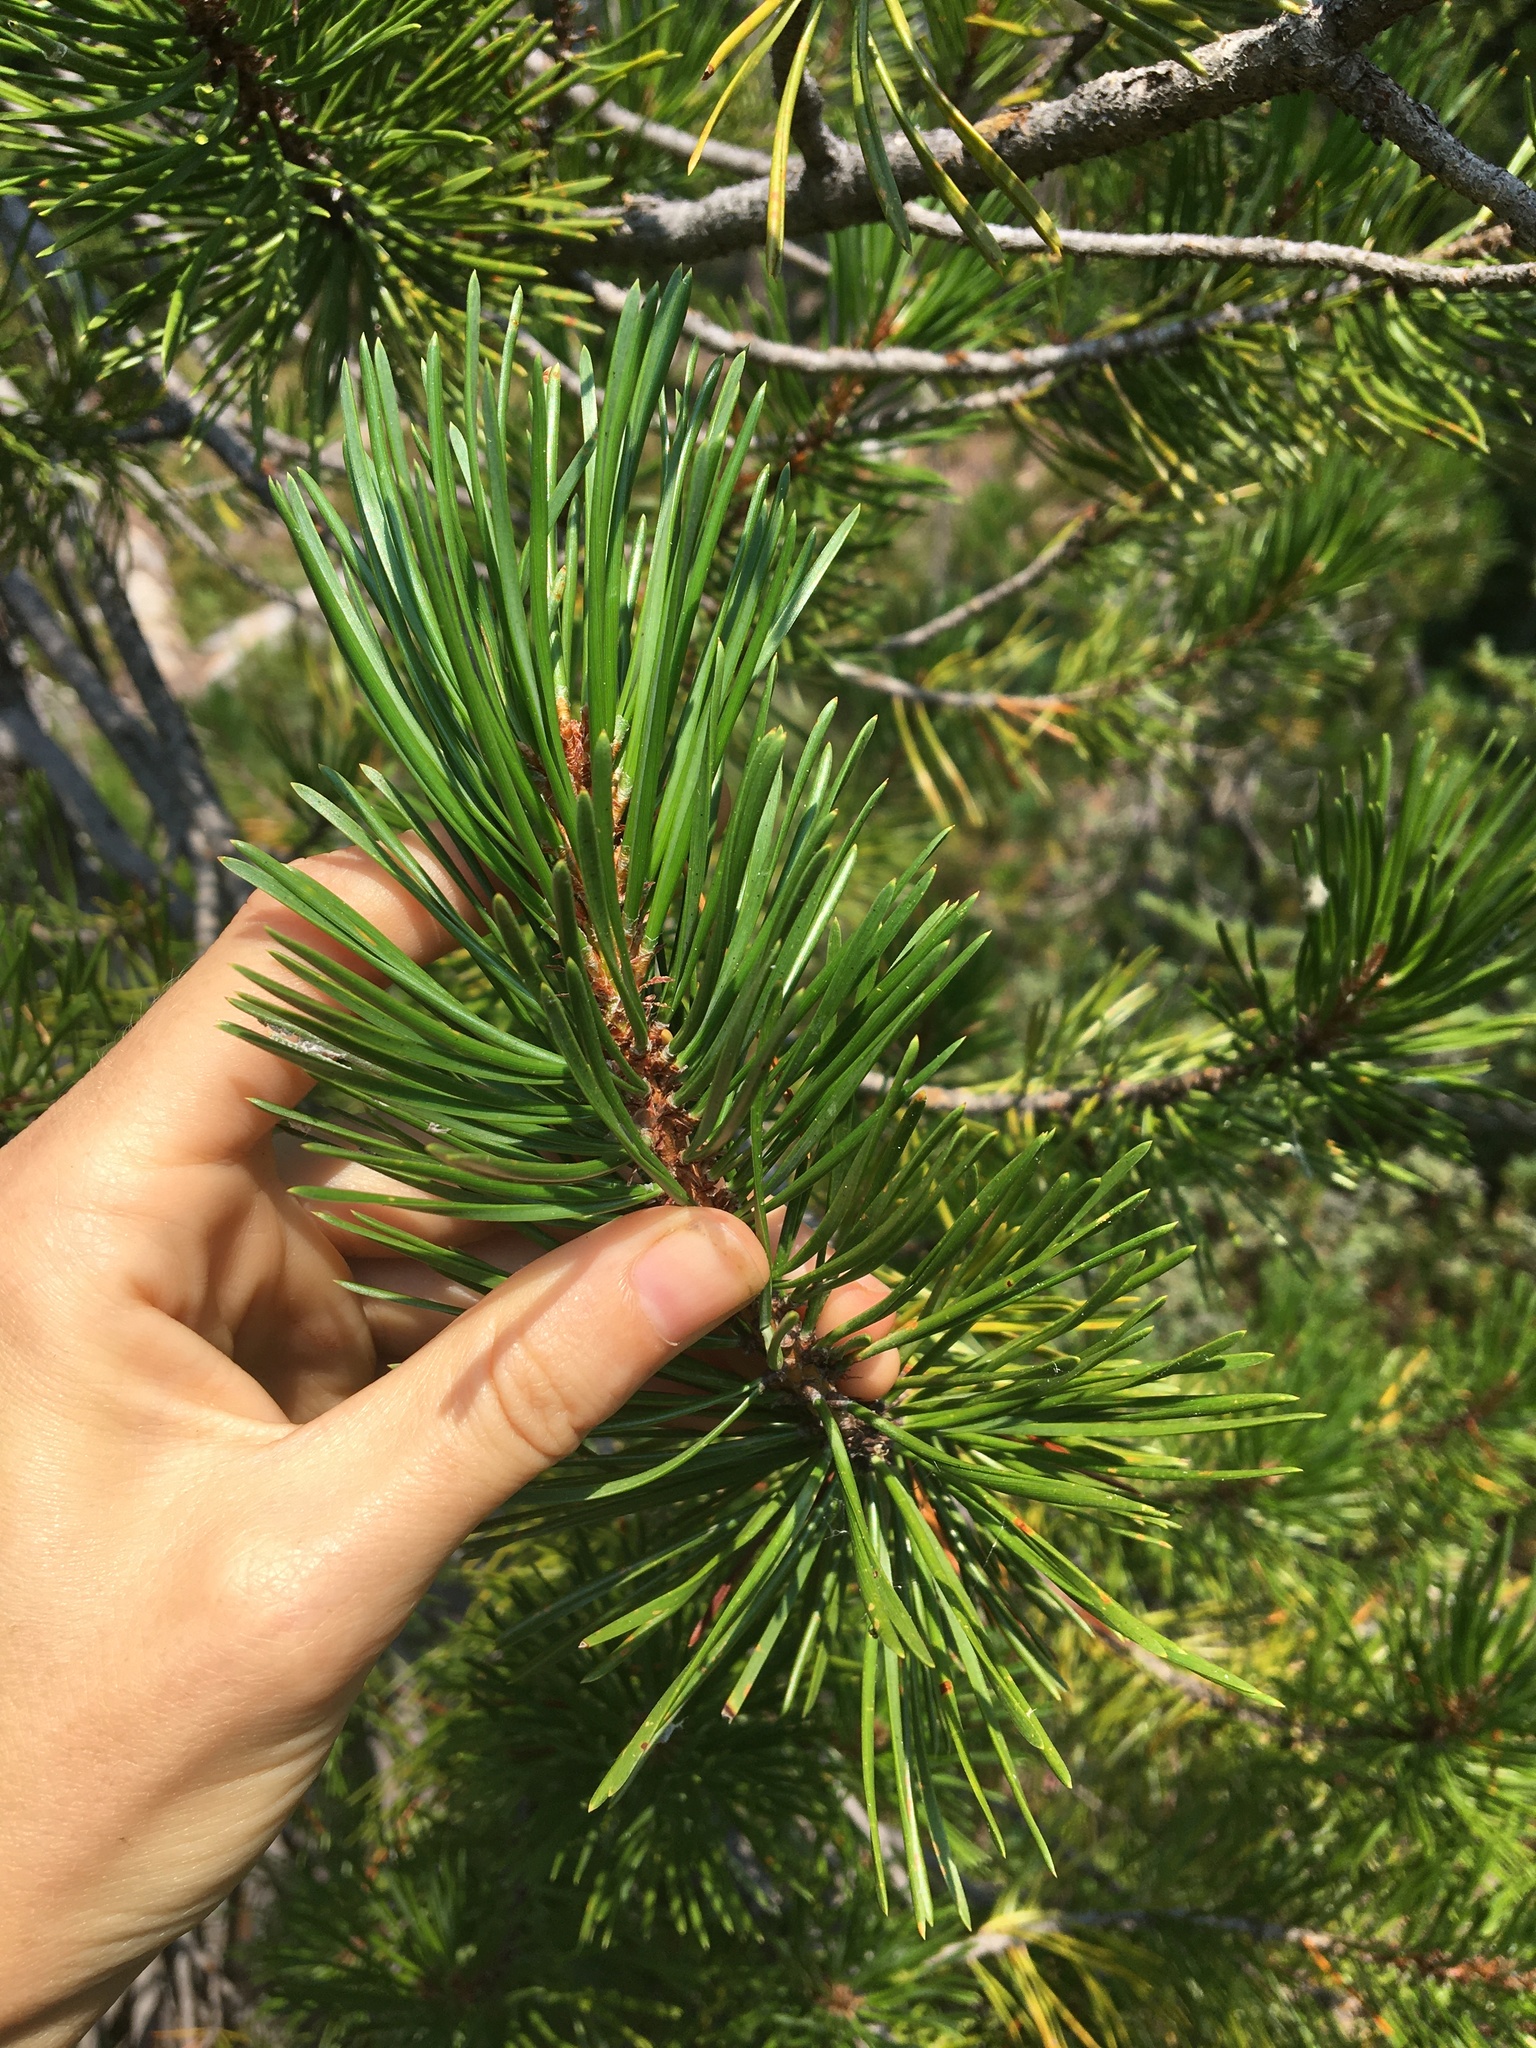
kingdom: Plantae
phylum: Tracheophyta
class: Pinopsida
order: Pinales
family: Pinaceae
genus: Pinus
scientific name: Pinus contorta
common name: Lodgepole pine
